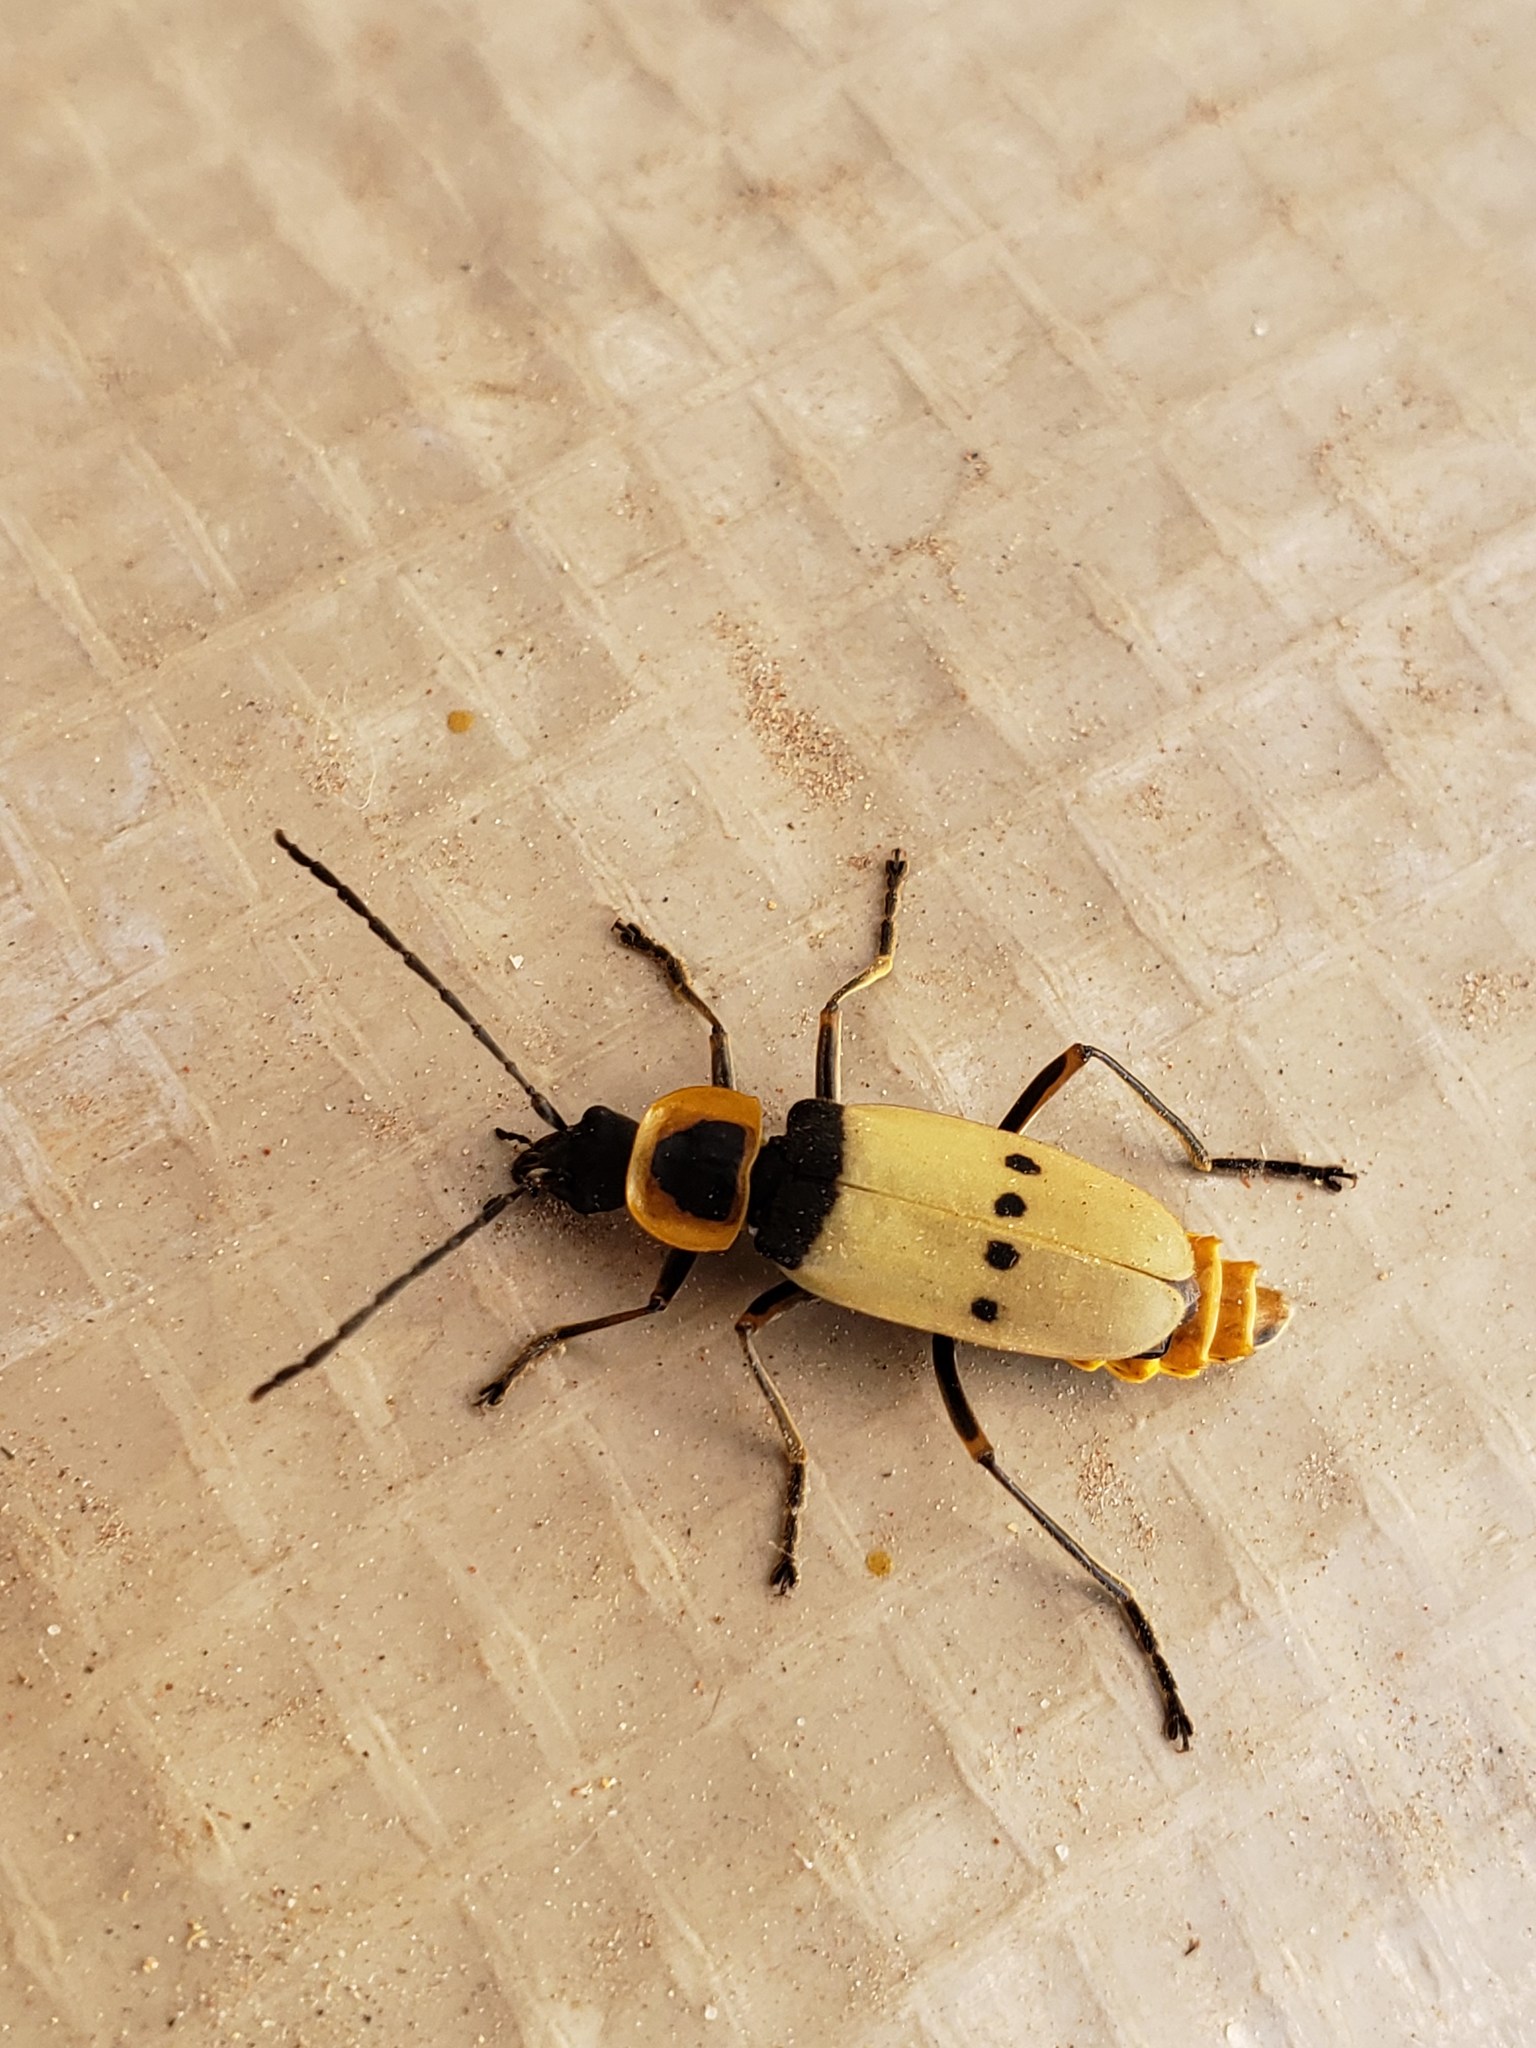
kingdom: Animalia
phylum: Arthropoda
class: Insecta
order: Coleoptera
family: Cantharidae
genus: Chauliognathus
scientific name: Chauliognathus
